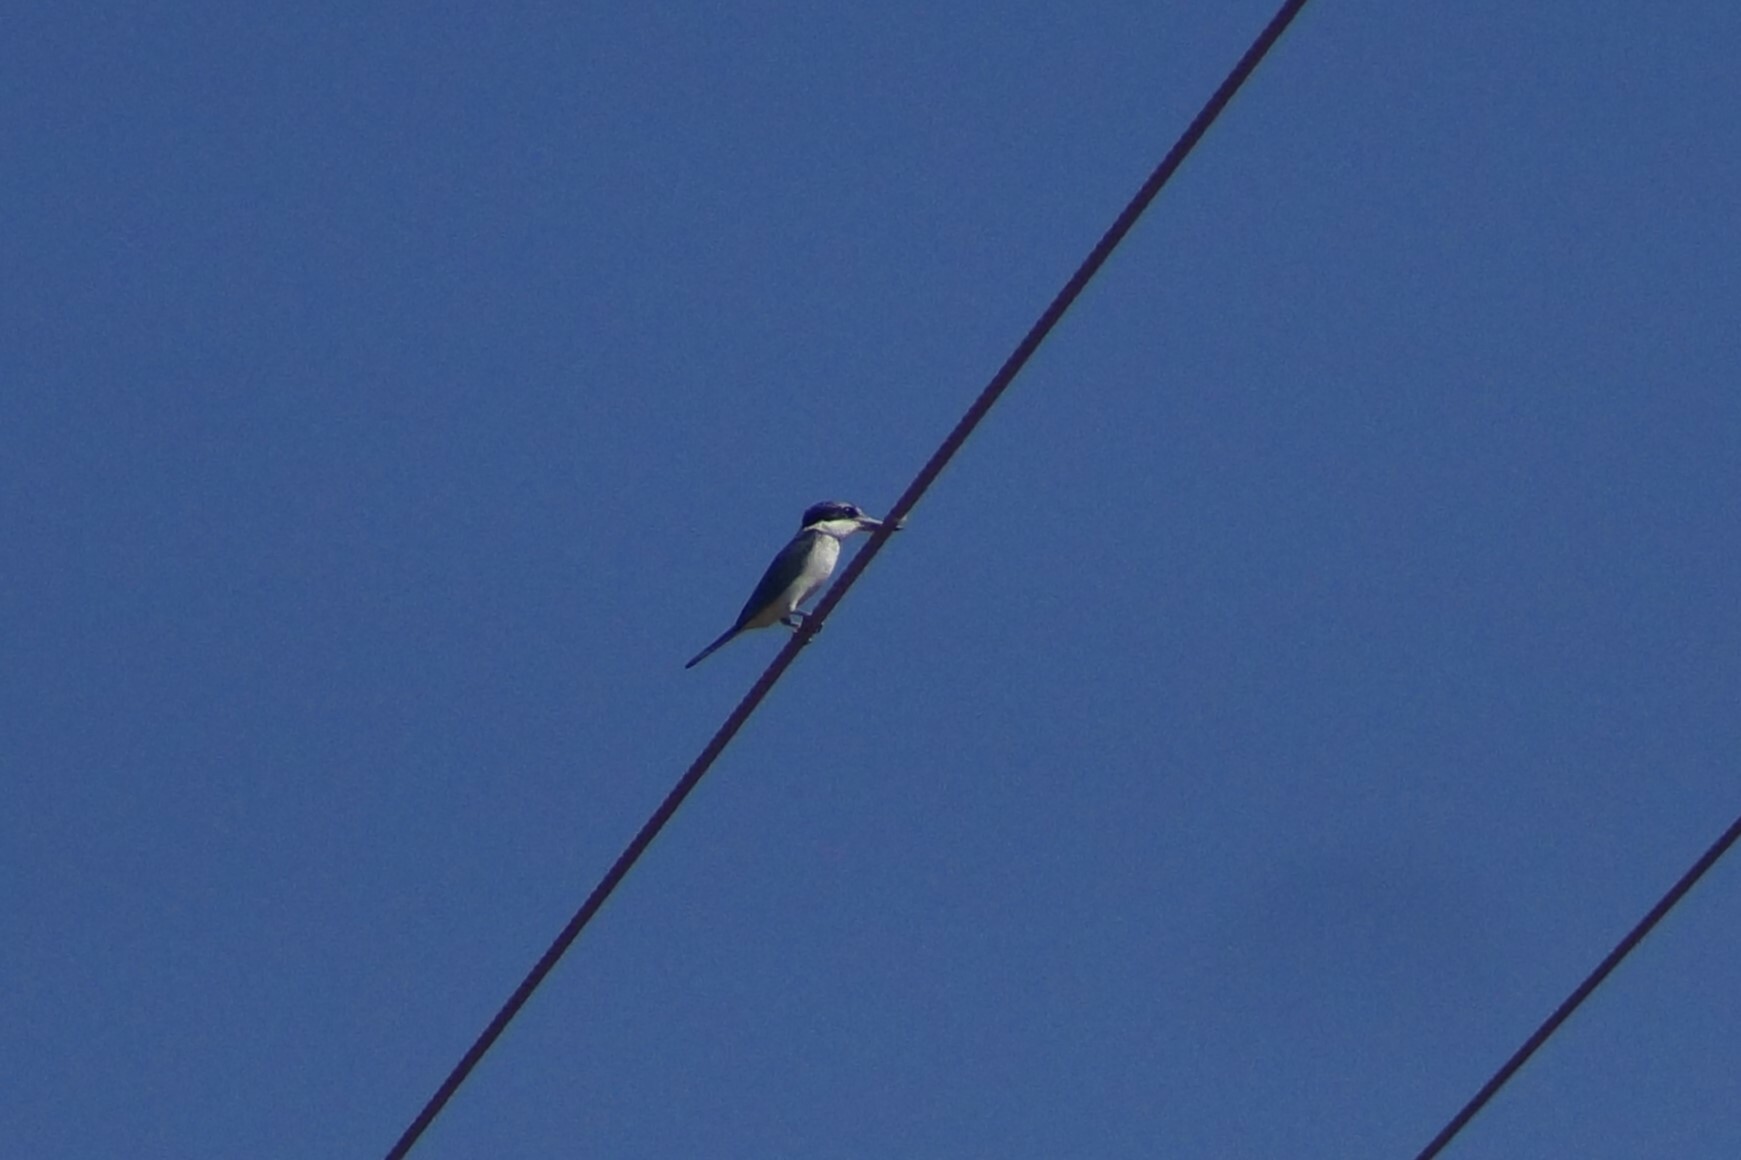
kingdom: Animalia
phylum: Chordata
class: Aves
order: Coraciiformes
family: Alcedinidae
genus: Todiramphus
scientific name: Todiramphus sanctus
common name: Sacred kingfisher
